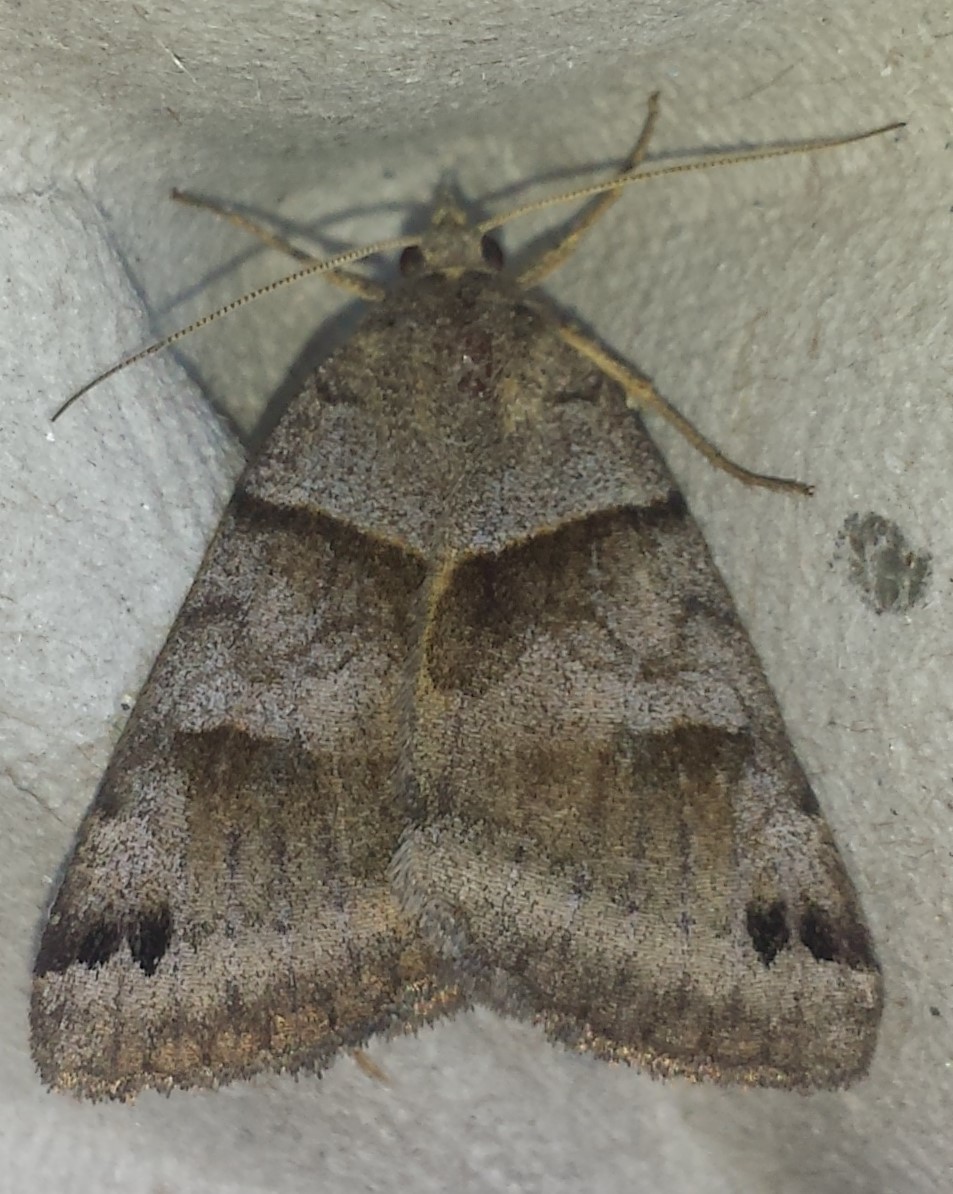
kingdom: Animalia
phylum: Arthropoda
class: Insecta
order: Lepidoptera
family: Erebidae
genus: Caenurgina
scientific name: Caenurgina crassiuscula
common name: Double-barred
